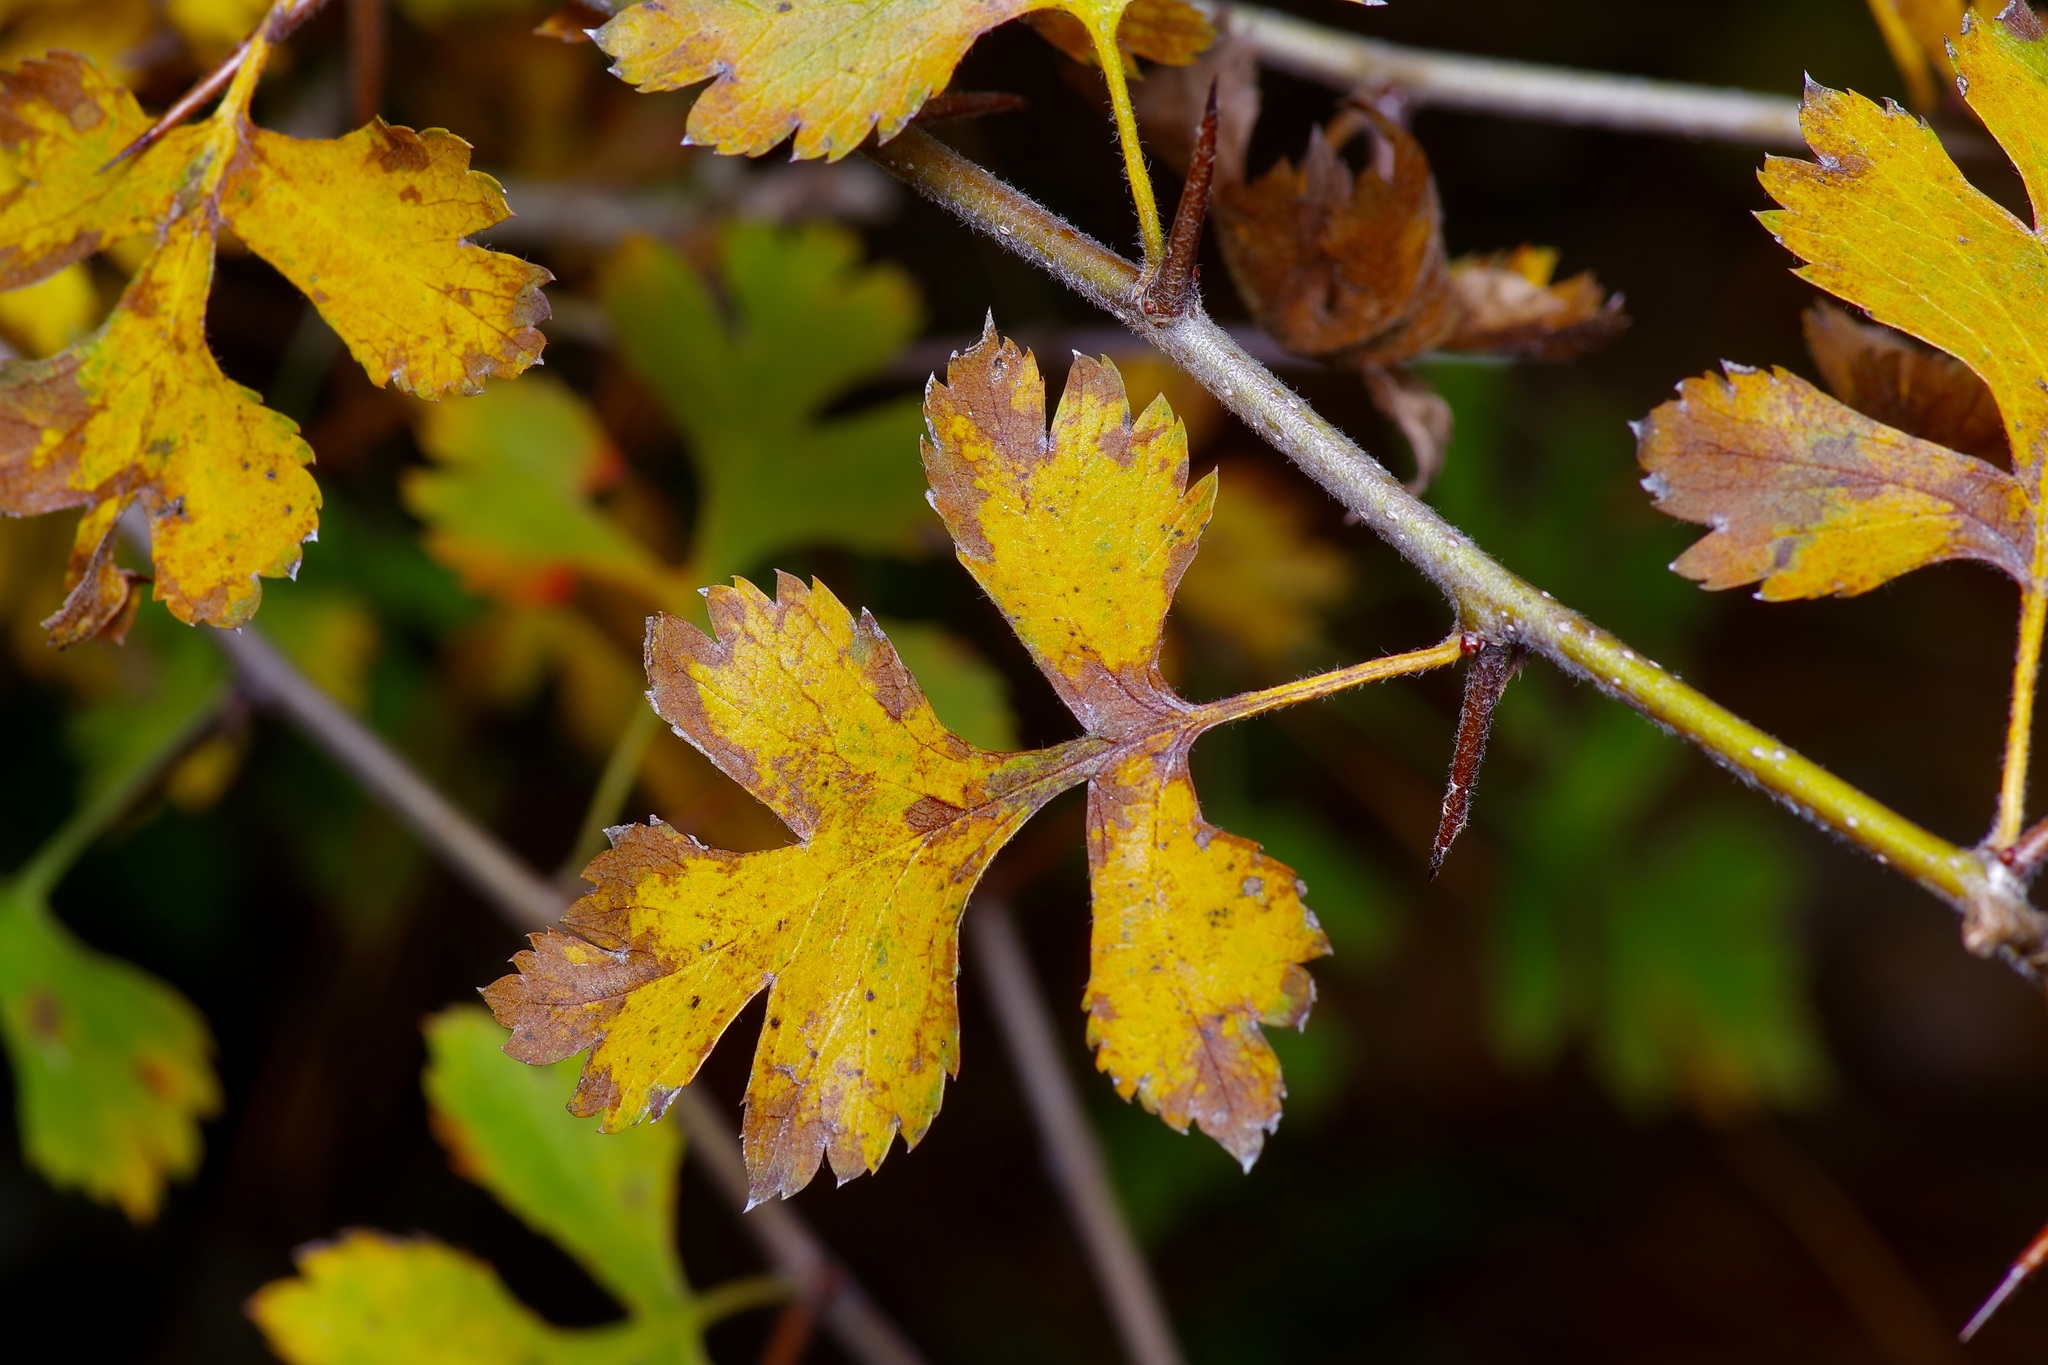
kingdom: Plantae
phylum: Tracheophyta
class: Magnoliopsida
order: Rosales
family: Rosaceae
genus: Crataegus
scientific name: Crataegus marshallii
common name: Parsley-hawthorn
